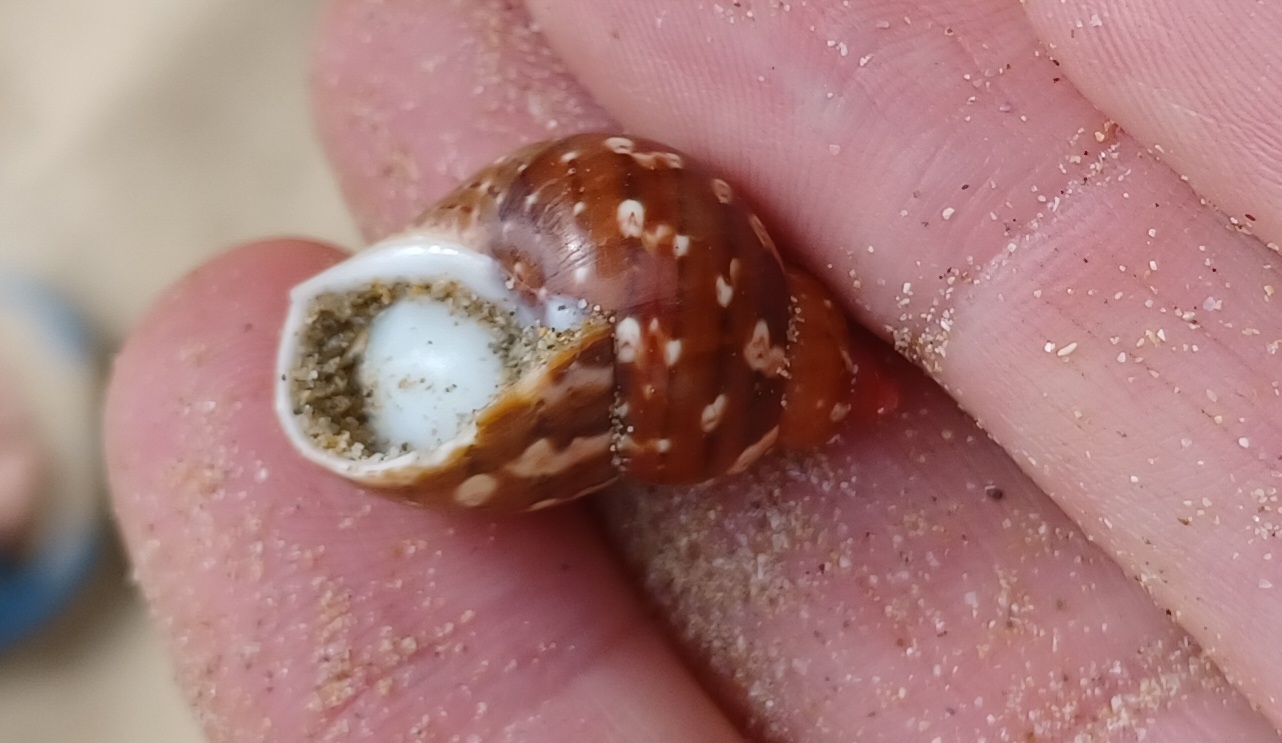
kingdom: Animalia
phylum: Mollusca
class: Gastropoda
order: Trochida
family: Phasianellidae
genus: Phasianella
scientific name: Phasianella ventricosa
